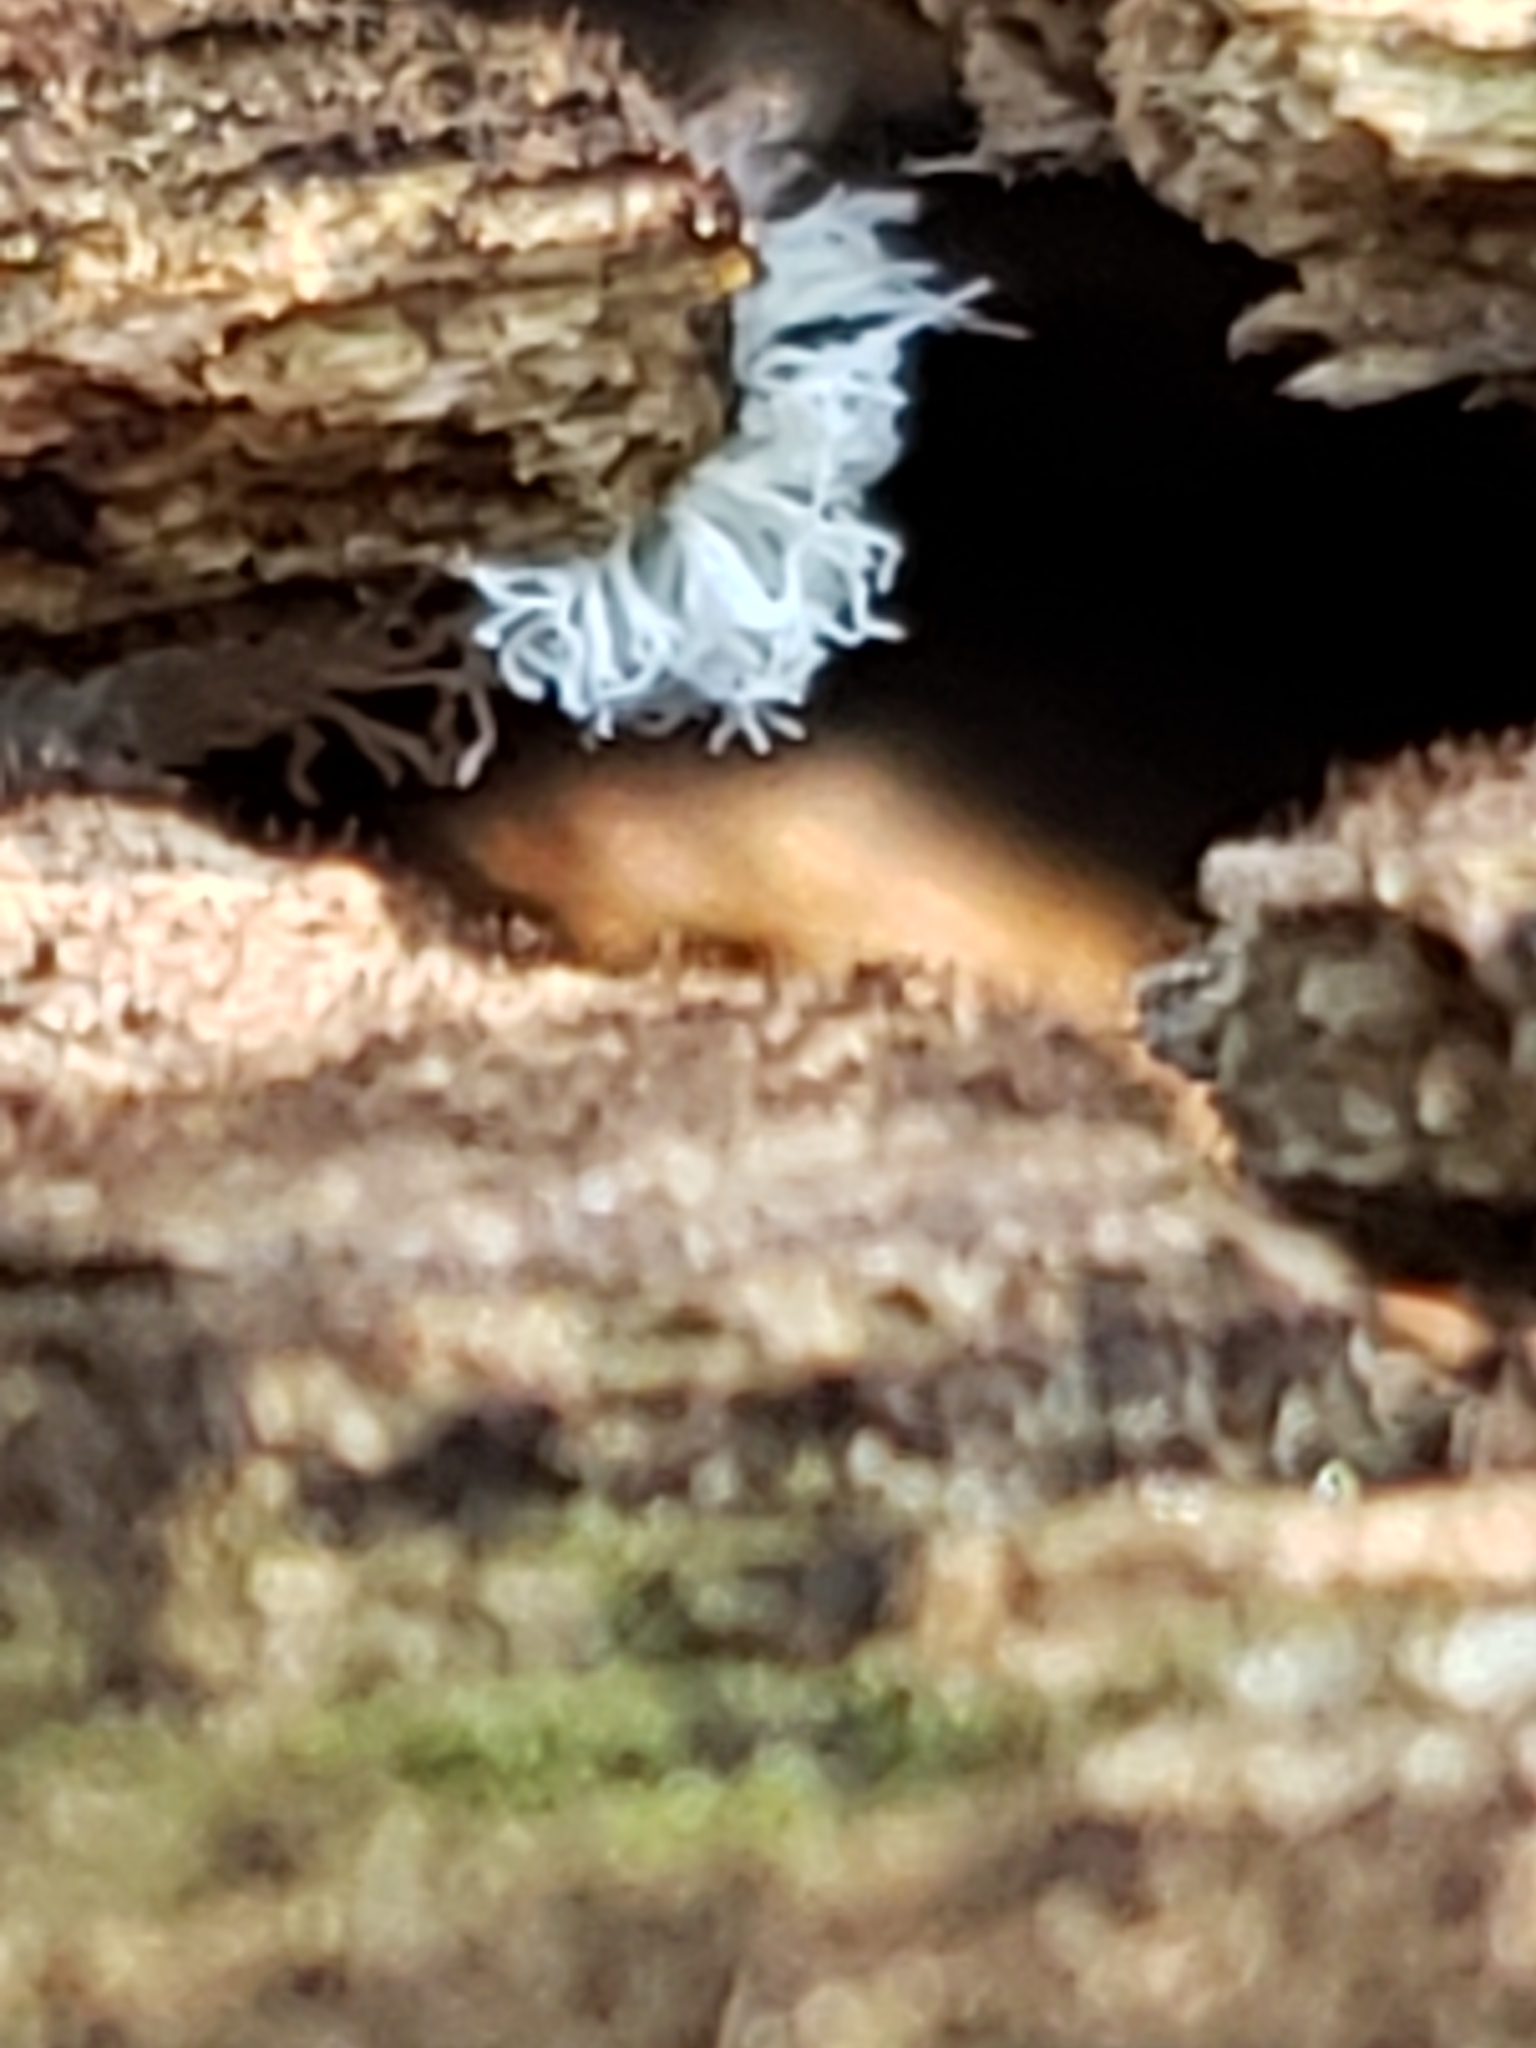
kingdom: Protozoa
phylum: Mycetozoa
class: Protosteliomycetes
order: Ceratiomyxales
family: Ceratiomyxaceae
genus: Ceratiomyxa
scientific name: Ceratiomyxa fruticulosa
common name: Honeycomb coral slime mold
